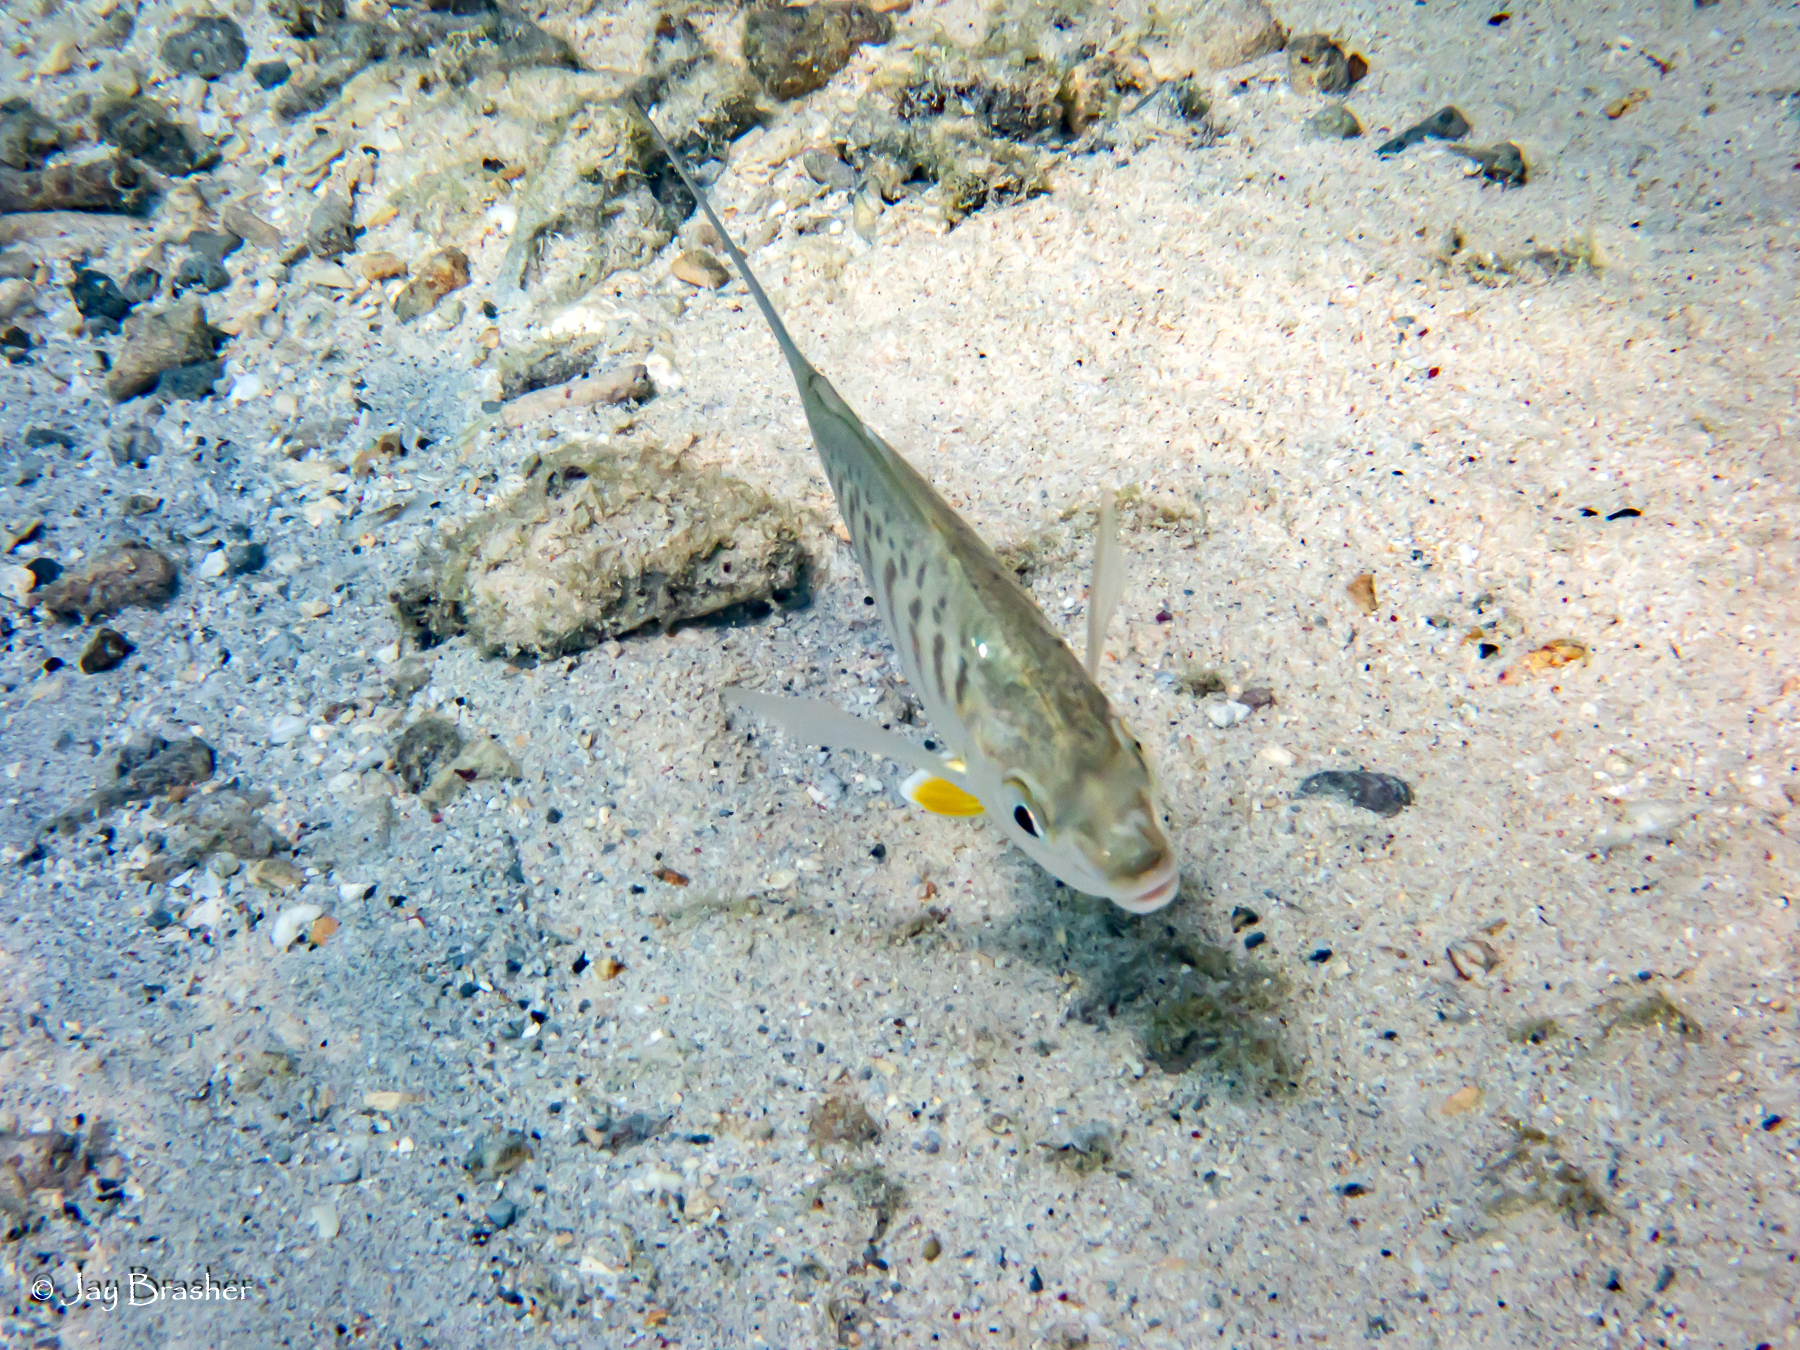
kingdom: Animalia
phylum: Chordata
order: Perciformes
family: Gerreidae
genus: Gerres
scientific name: Gerres cinereus
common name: Hedow
